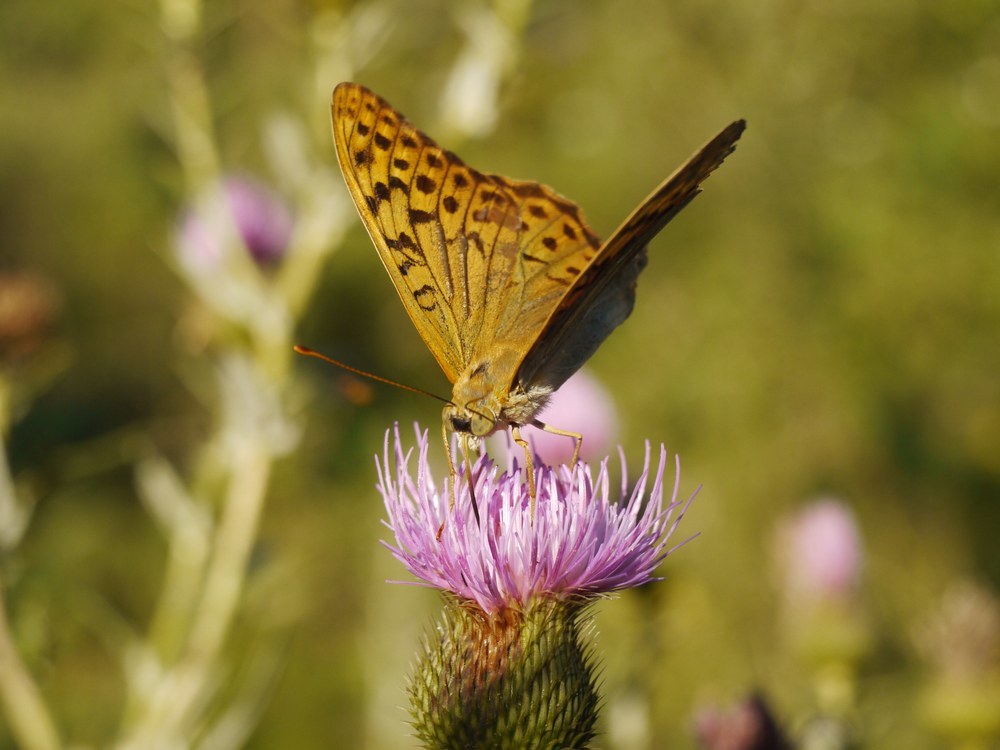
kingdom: Animalia
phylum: Arthropoda
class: Insecta
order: Lepidoptera
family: Nymphalidae
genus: Damora
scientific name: Damora pandora
